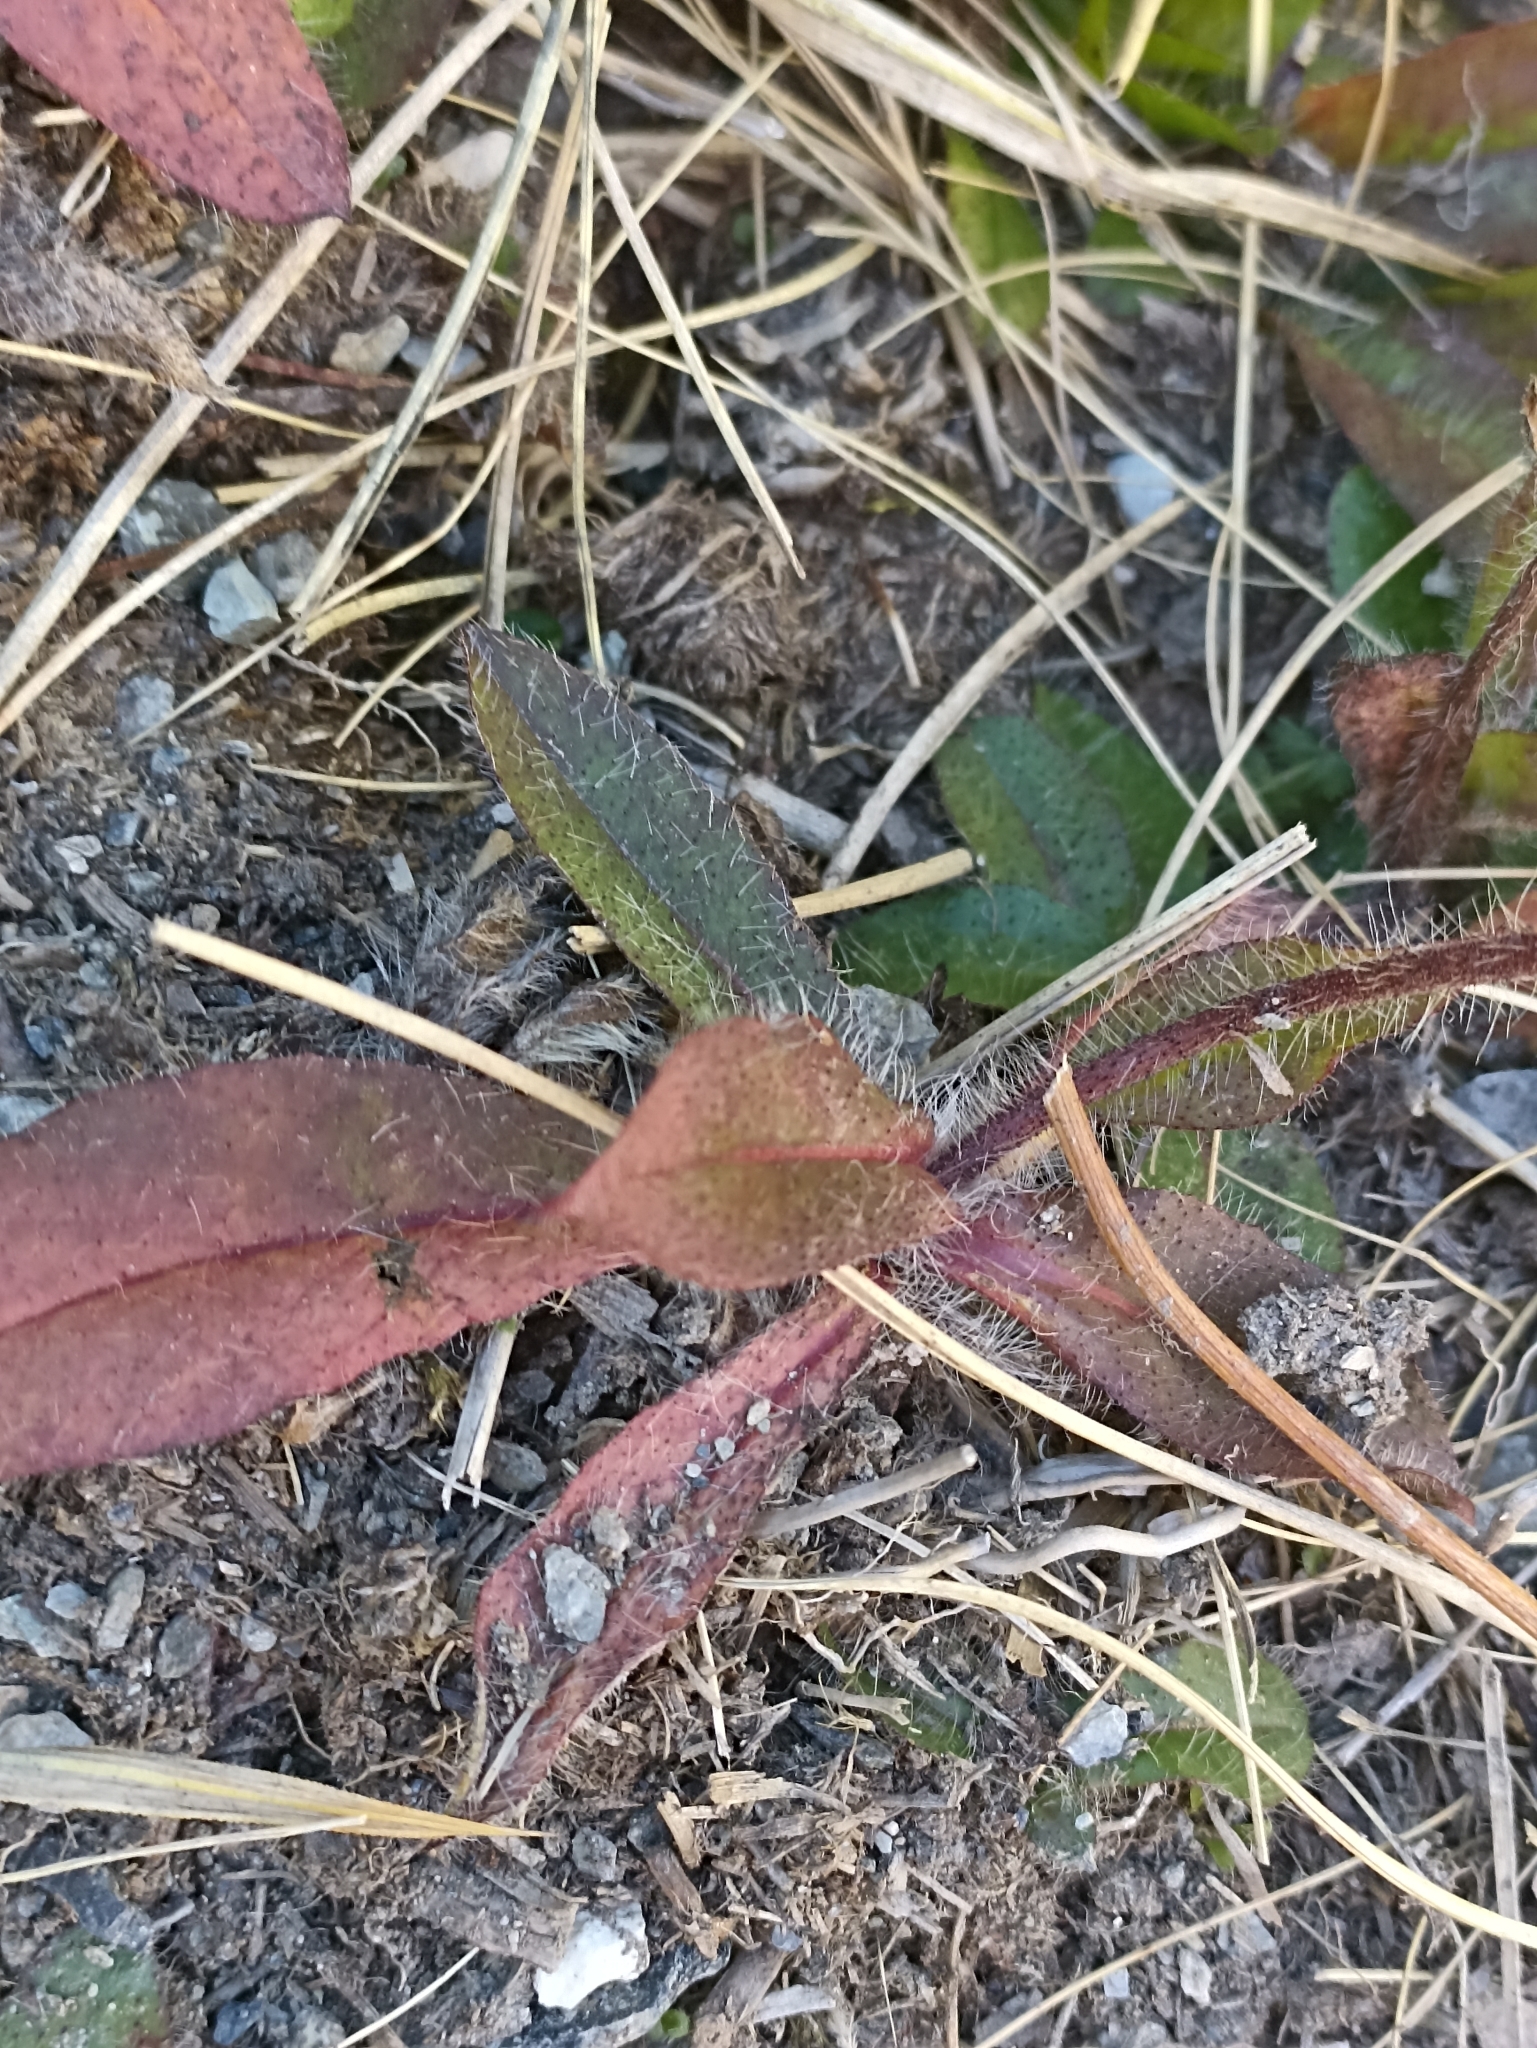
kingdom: Plantae
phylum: Tracheophyta
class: Magnoliopsida
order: Asterales
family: Asteraceae
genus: Pilosella
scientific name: Pilosella aurantiaca
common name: Fox-and-cubs
